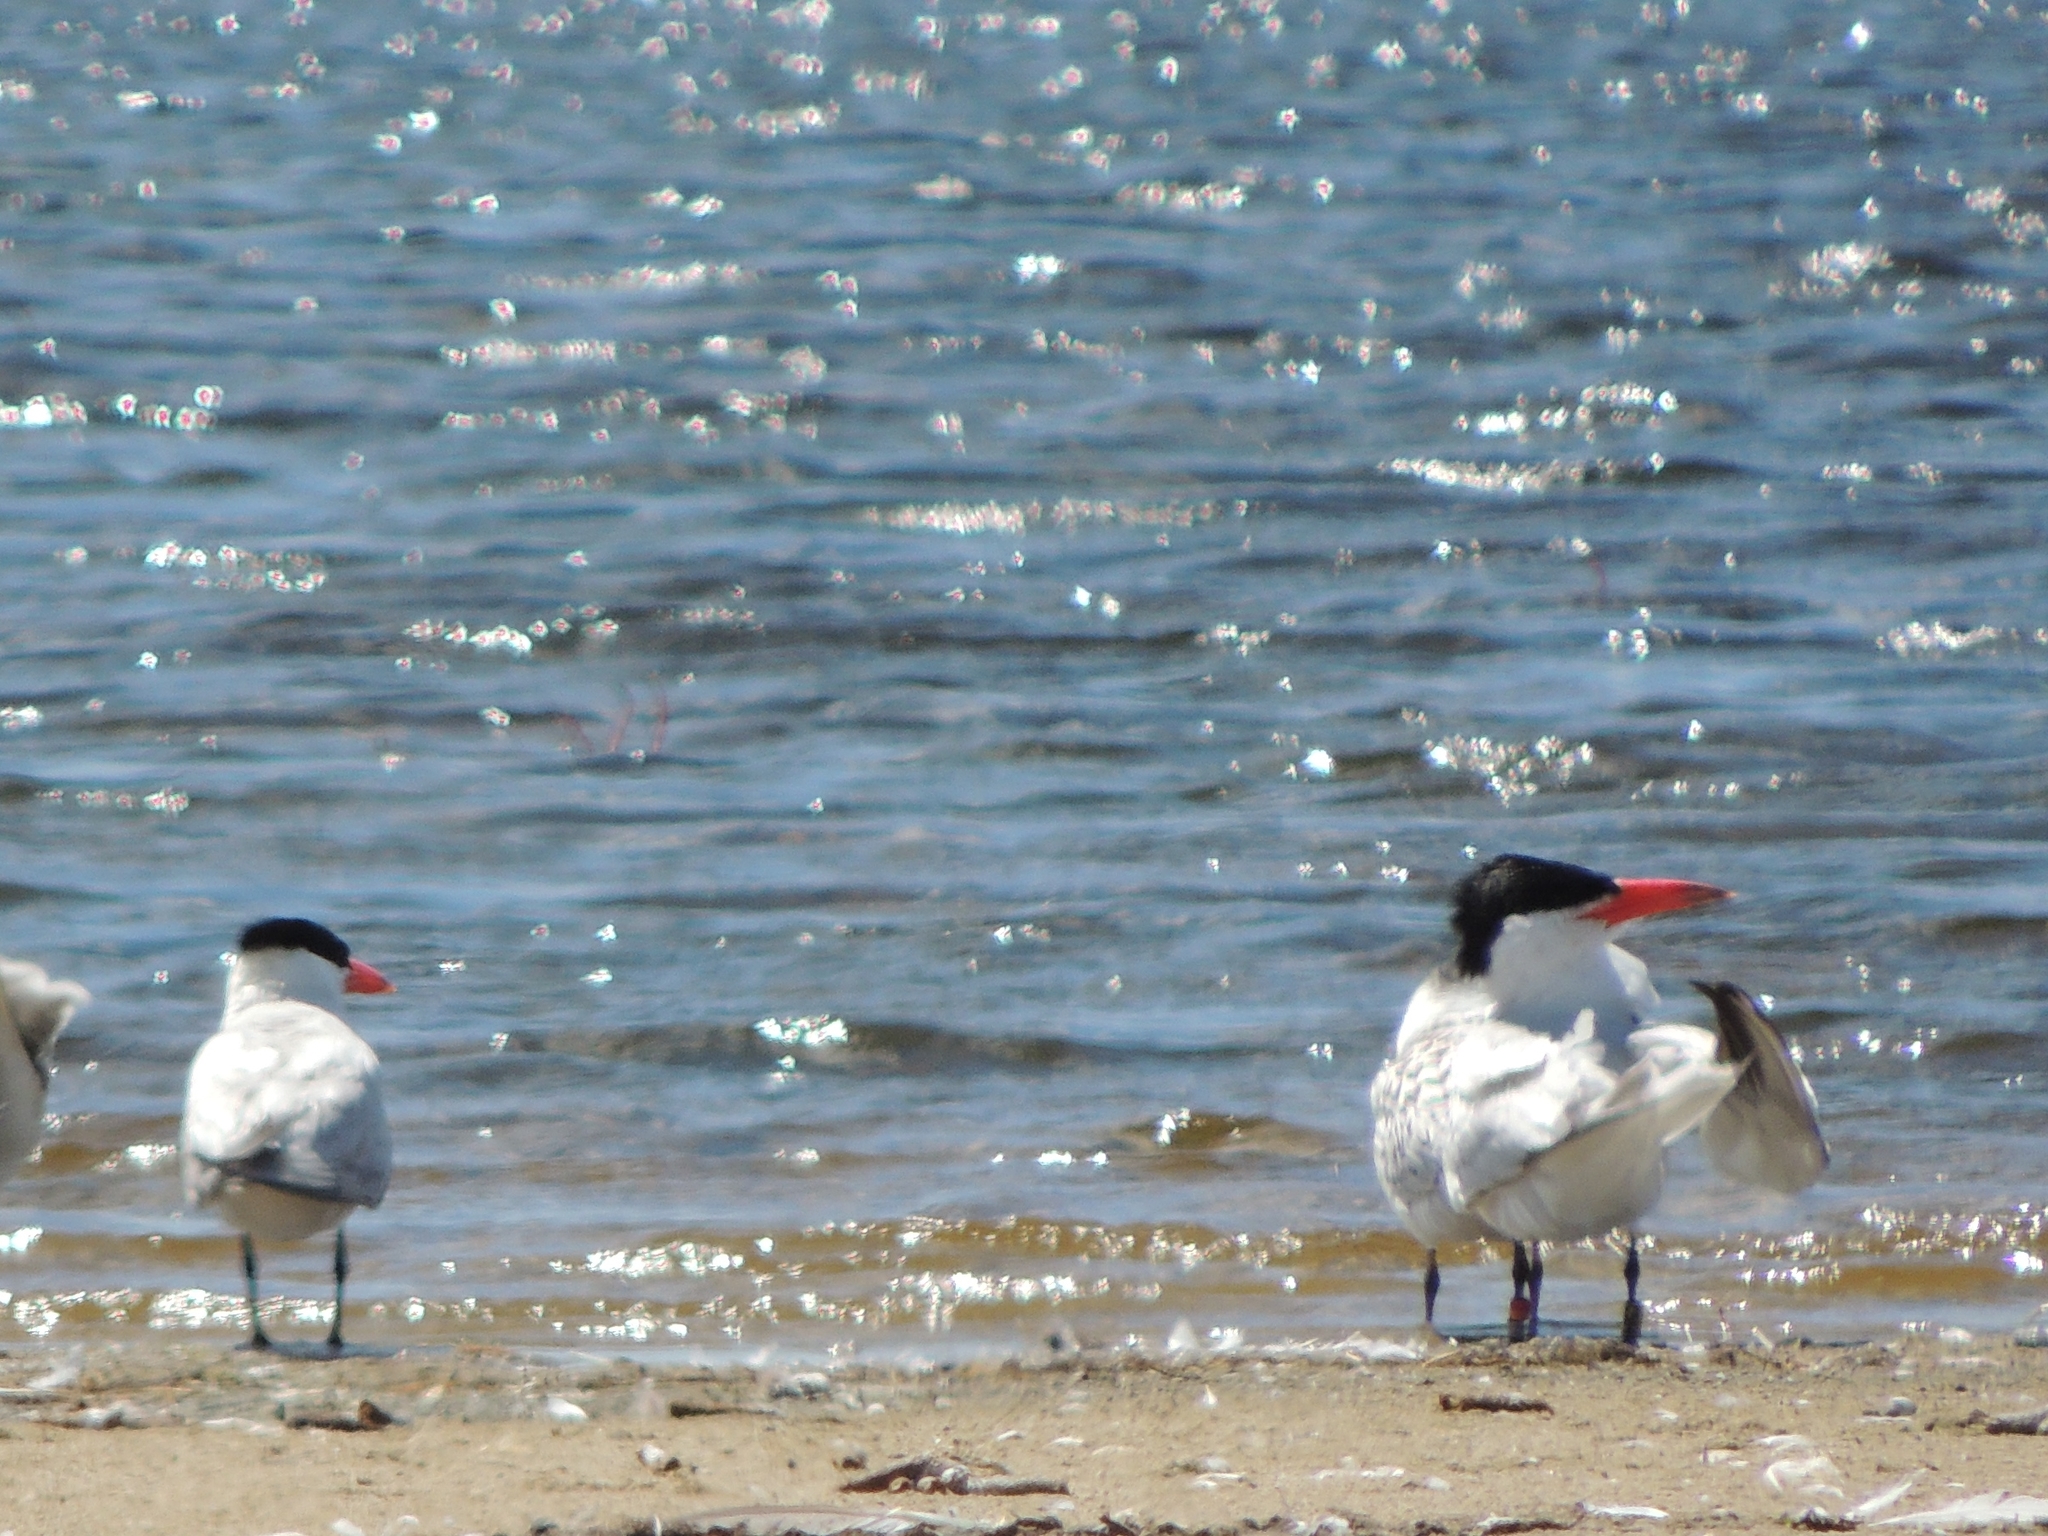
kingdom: Animalia
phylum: Chordata
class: Aves
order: Charadriiformes
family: Laridae
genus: Hydroprogne
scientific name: Hydroprogne caspia
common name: Caspian tern
